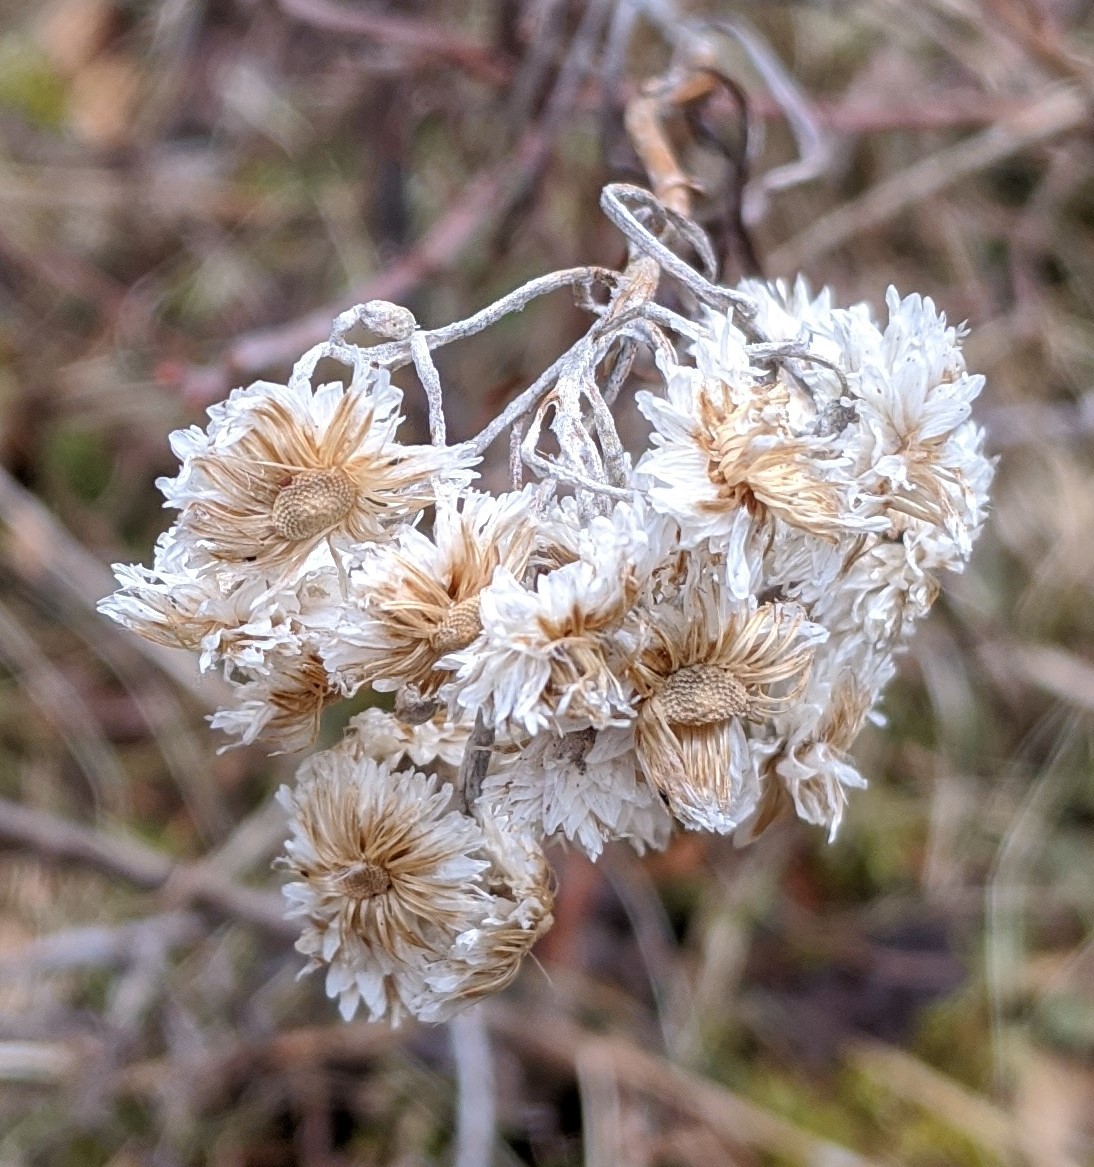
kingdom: Plantae
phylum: Tracheophyta
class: Magnoliopsida
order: Asterales
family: Asteraceae
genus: Anaphalis
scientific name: Anaphalis margaritacea
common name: Pearly everlasting
